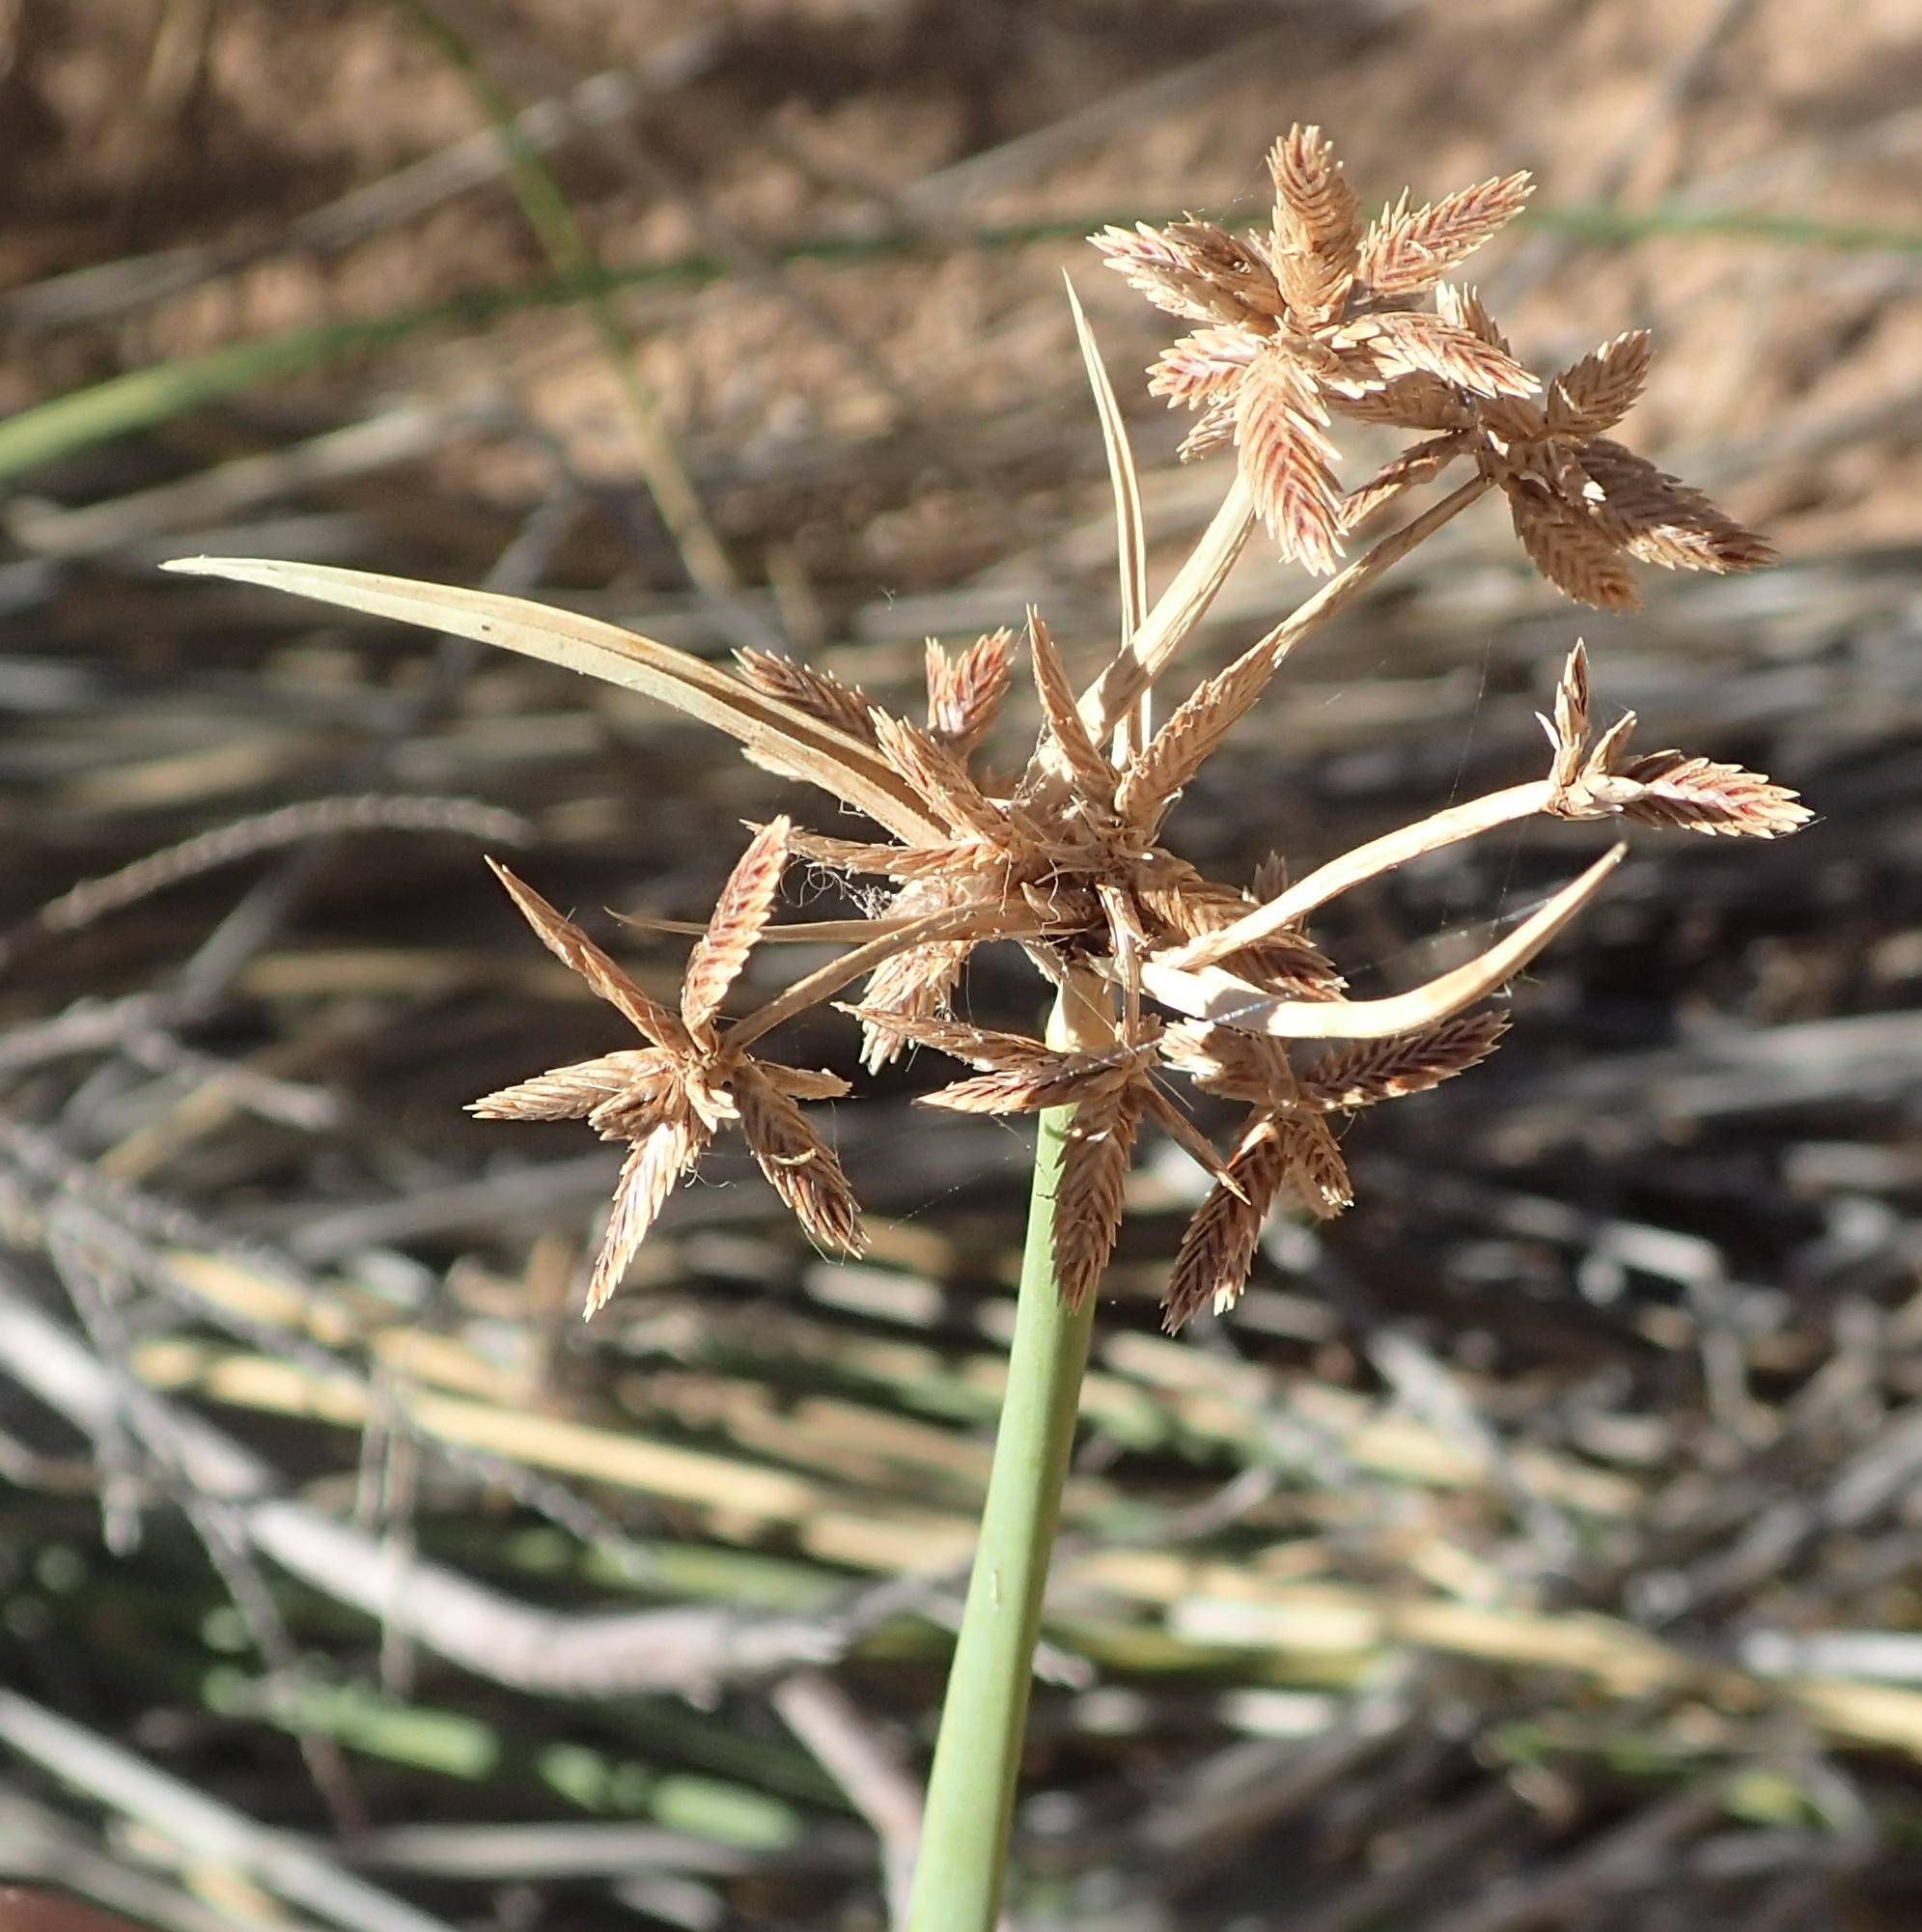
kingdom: Plantae
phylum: Tracheophyta
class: Liliopsida
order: Poales
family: Cyperaceae
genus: Cyperus
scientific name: Cyperus marginatus
